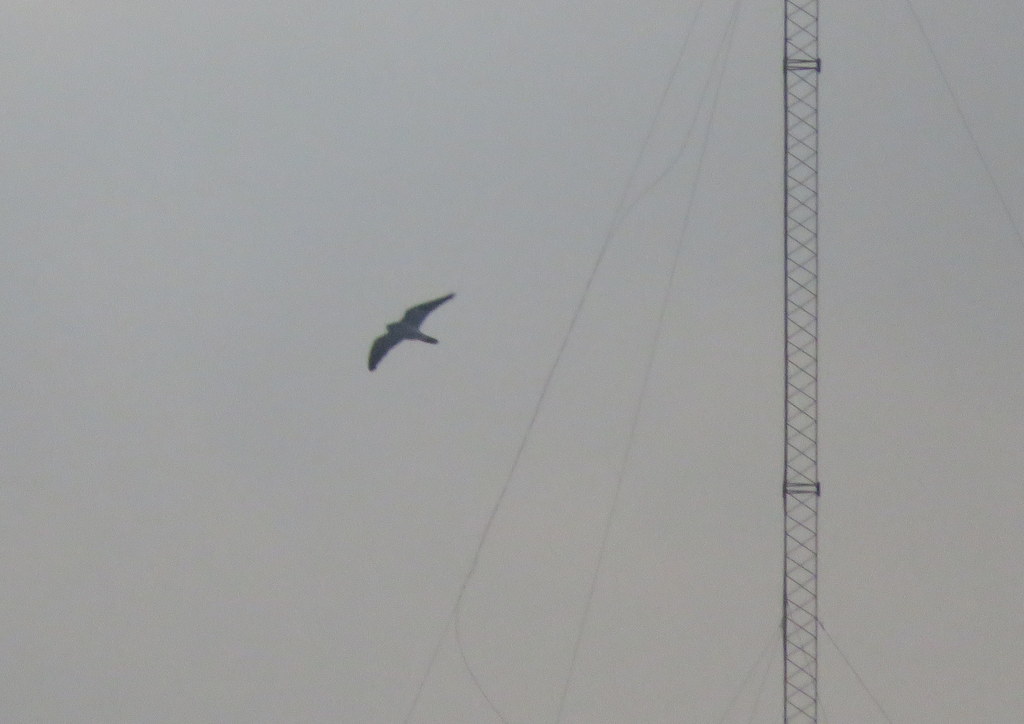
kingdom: Animalia
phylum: Chordata
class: Aves
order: Falconiformes
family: Falconidae
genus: Falco
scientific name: Falco peregrinus
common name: Peregrine falcon
